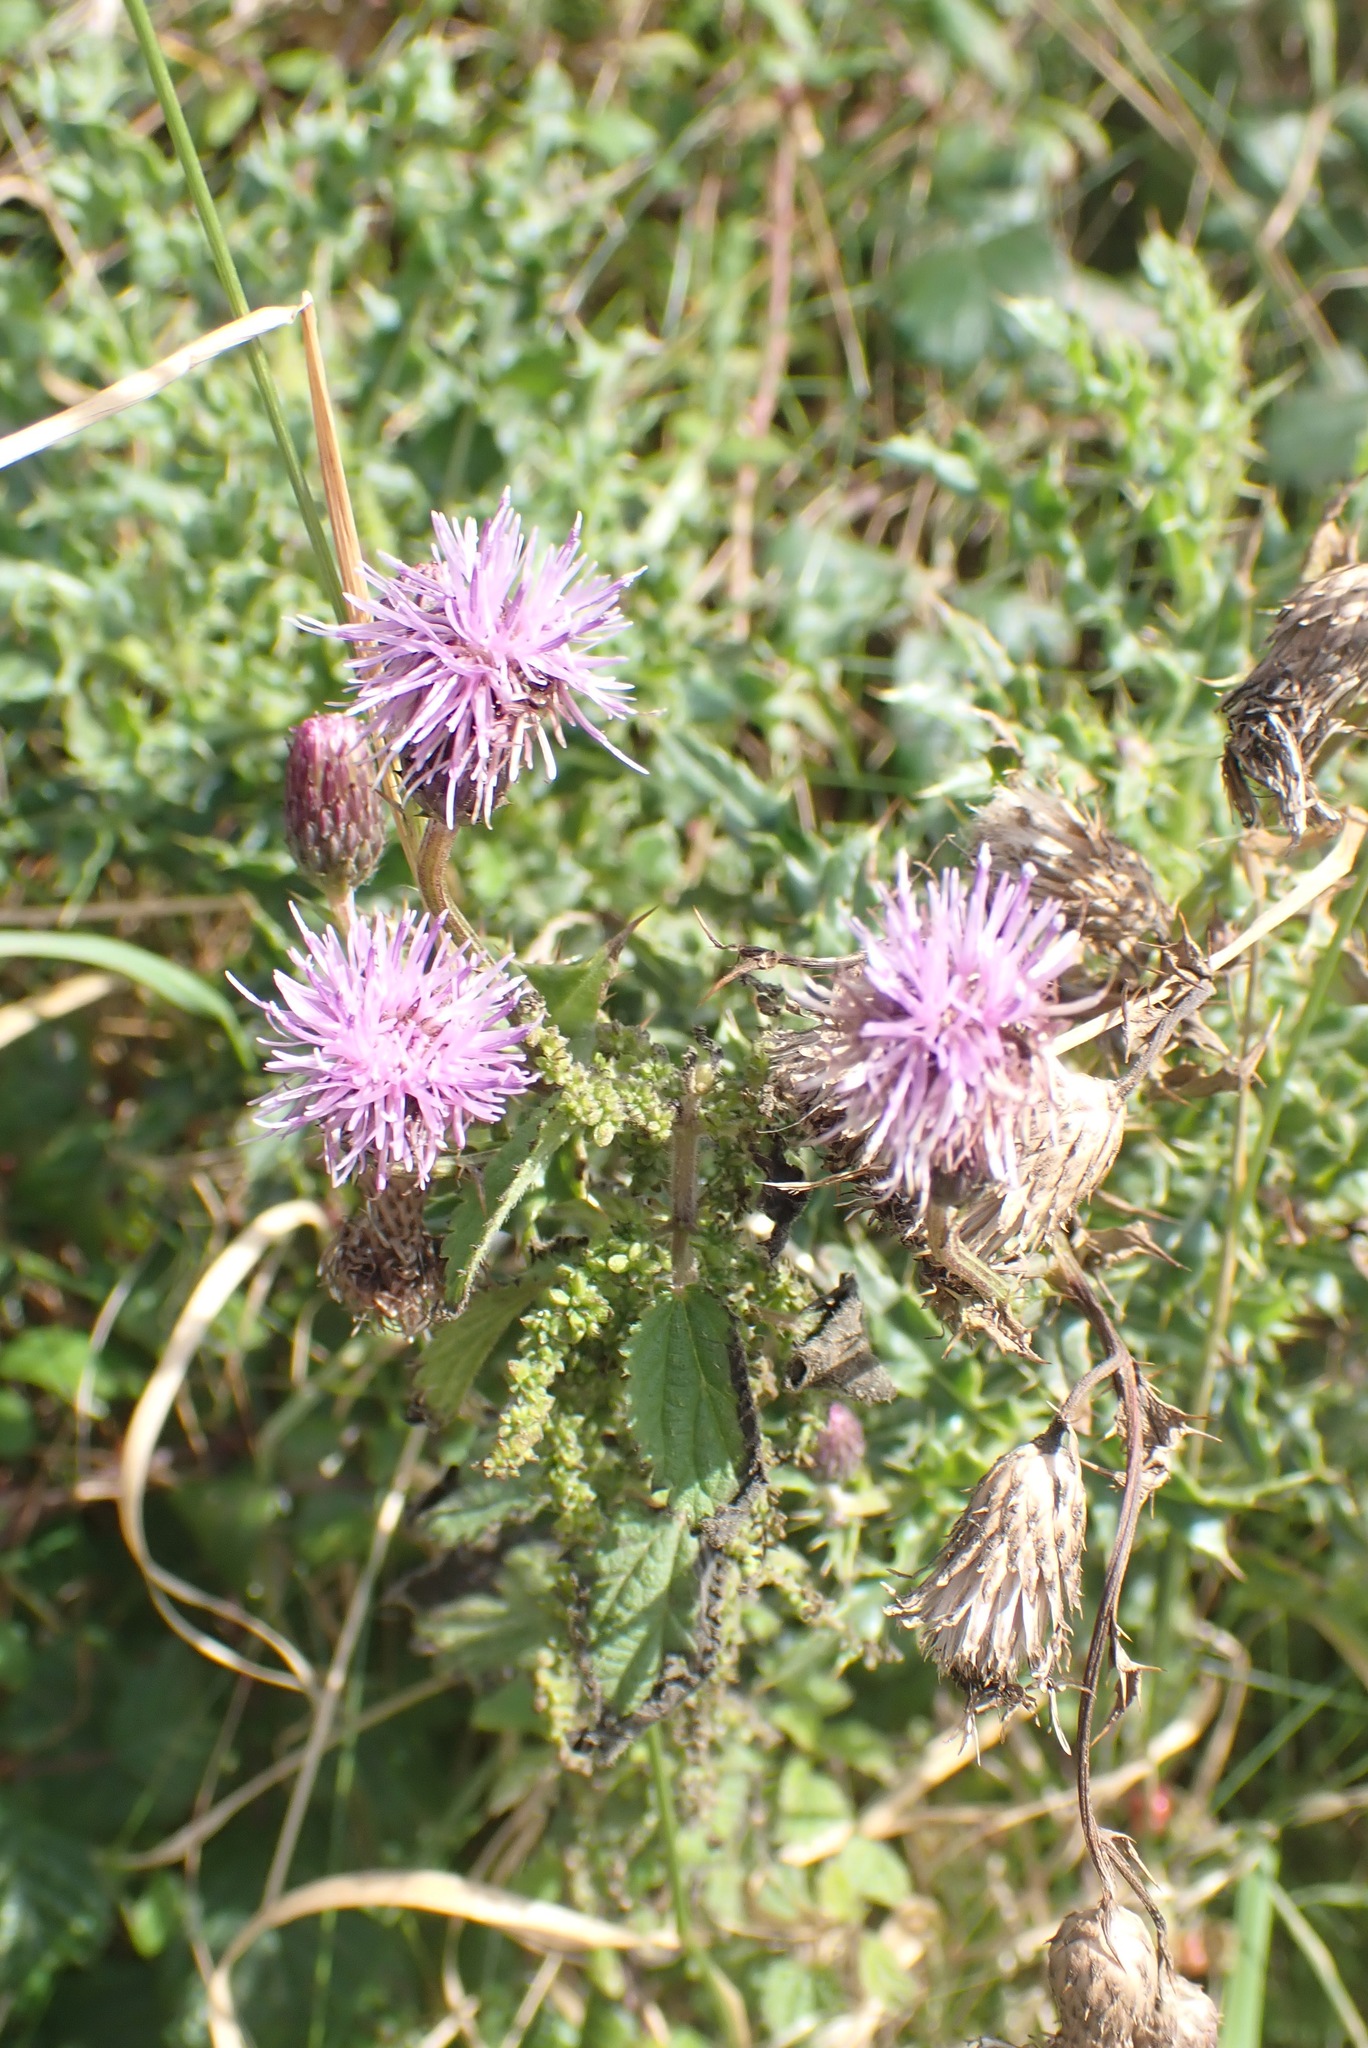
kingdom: Plantae
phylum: Tracheophyta
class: Magnoliopsida
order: Asterales
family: Asteraceae
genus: Cirsium
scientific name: Cirsium arvense
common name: Creeping thistle
